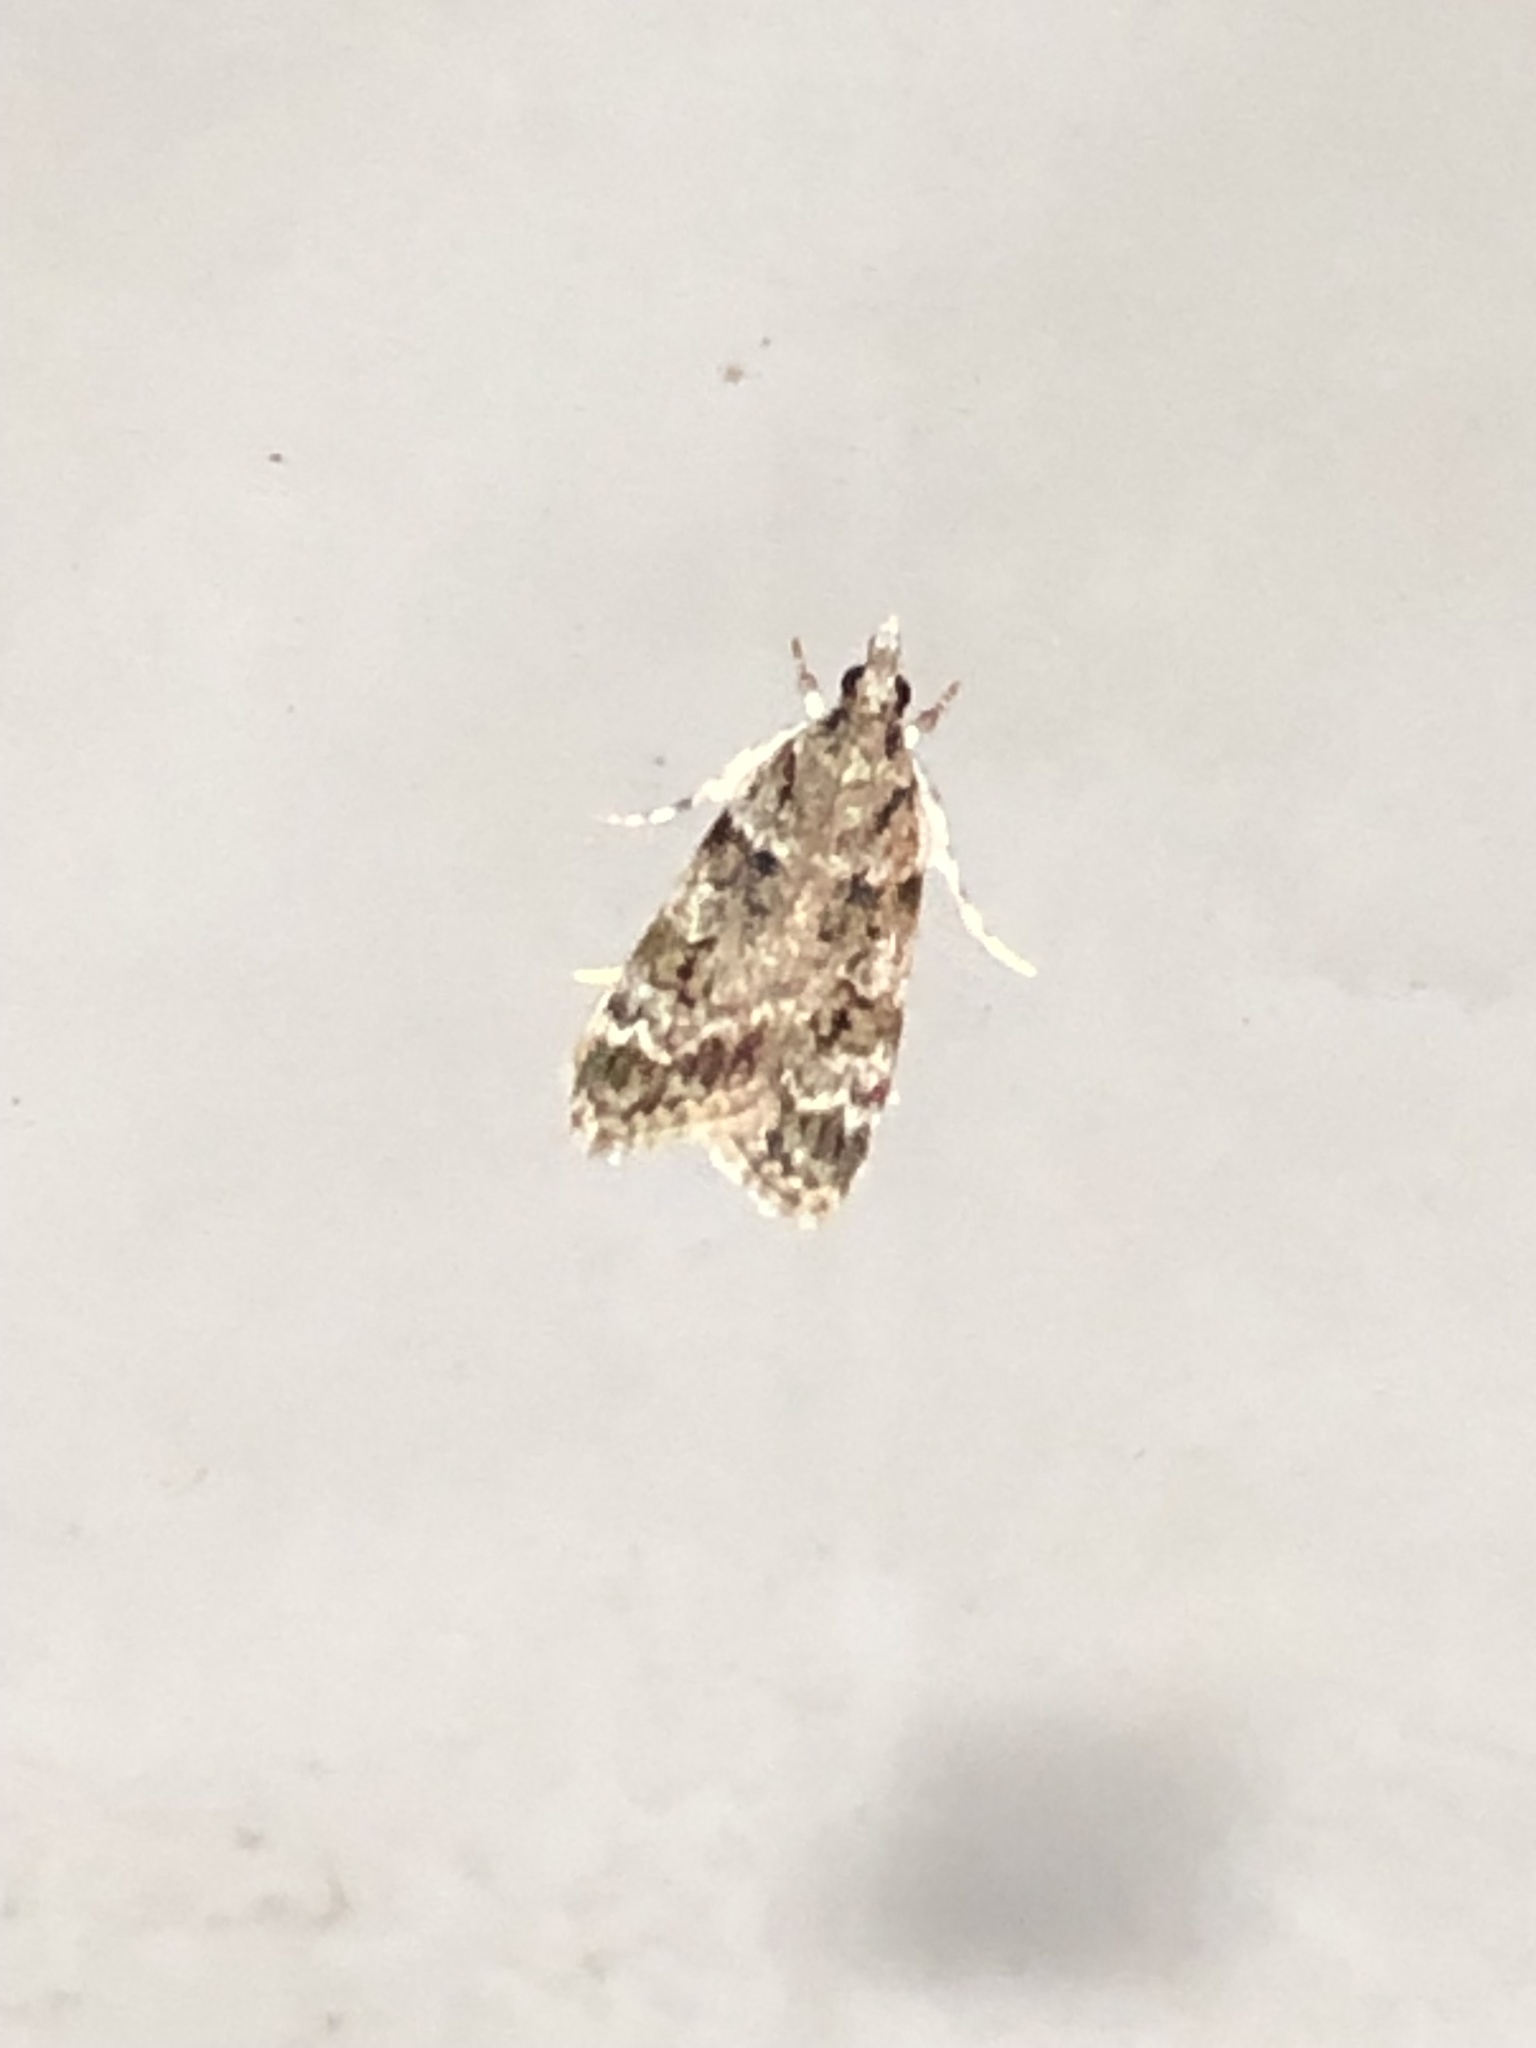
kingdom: Animalia
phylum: Arthropoda
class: Insecta
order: Lepidoptera
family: Crambidae
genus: Scoparia
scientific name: Scoparia biplagialis
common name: Double-striped scoparia moth
